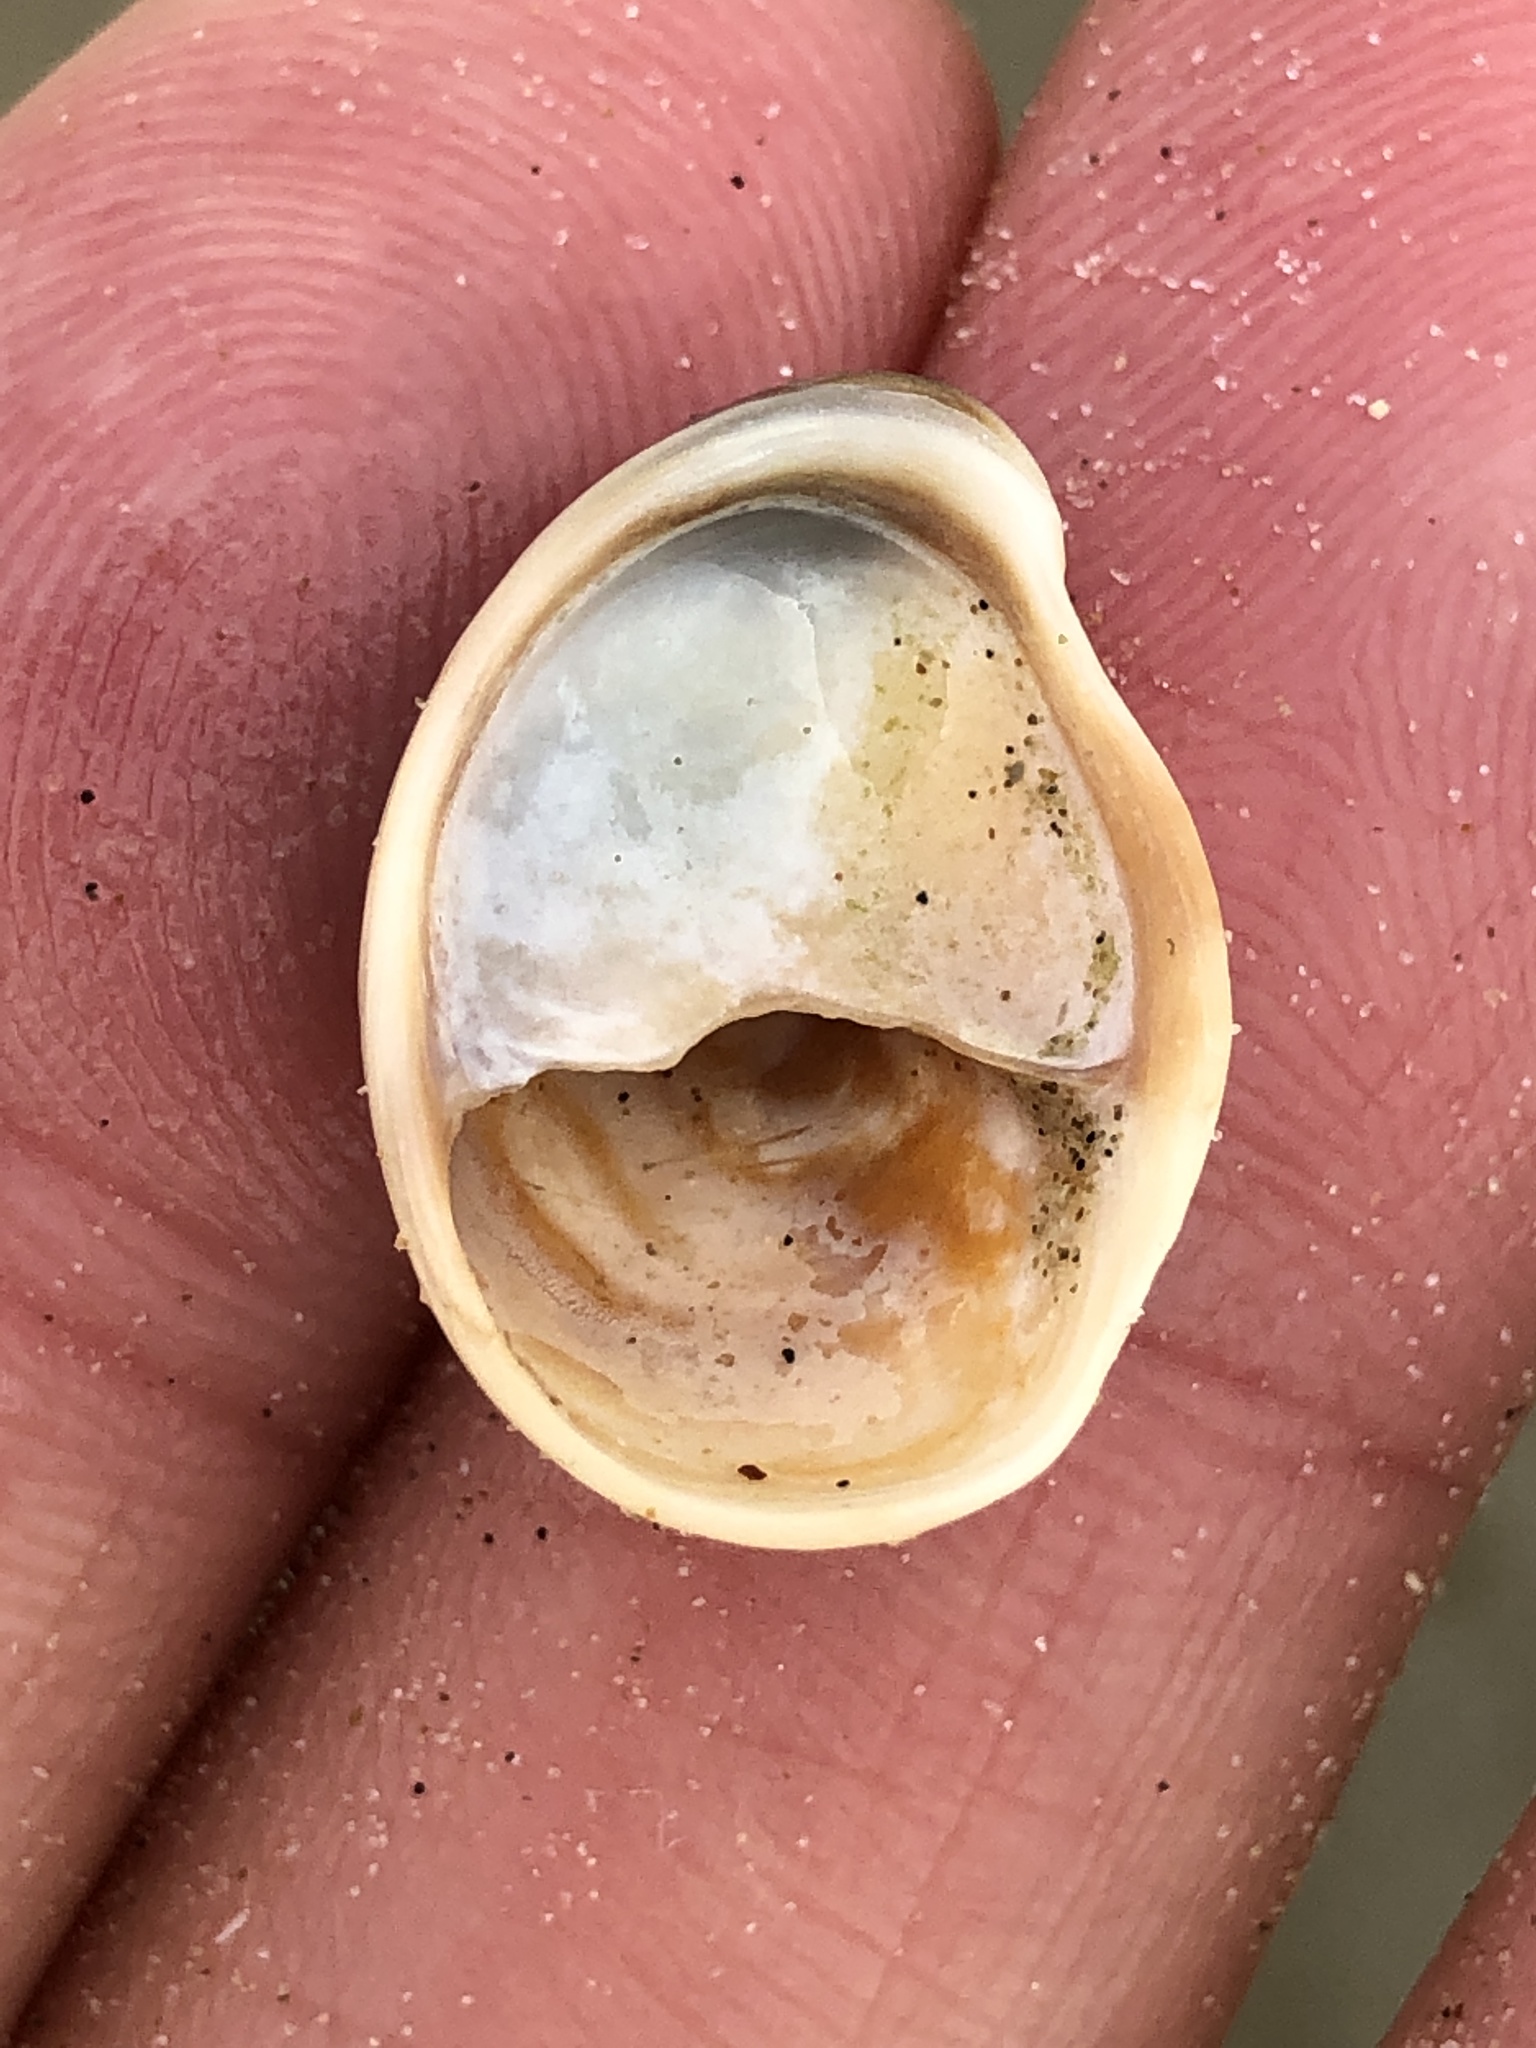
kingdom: Animalia
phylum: Mollusca
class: Gastropoda
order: Littorinimorpha
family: Calyptraeidae
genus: Crepidula
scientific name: Crepidula fornicata
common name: Slipper limpet
